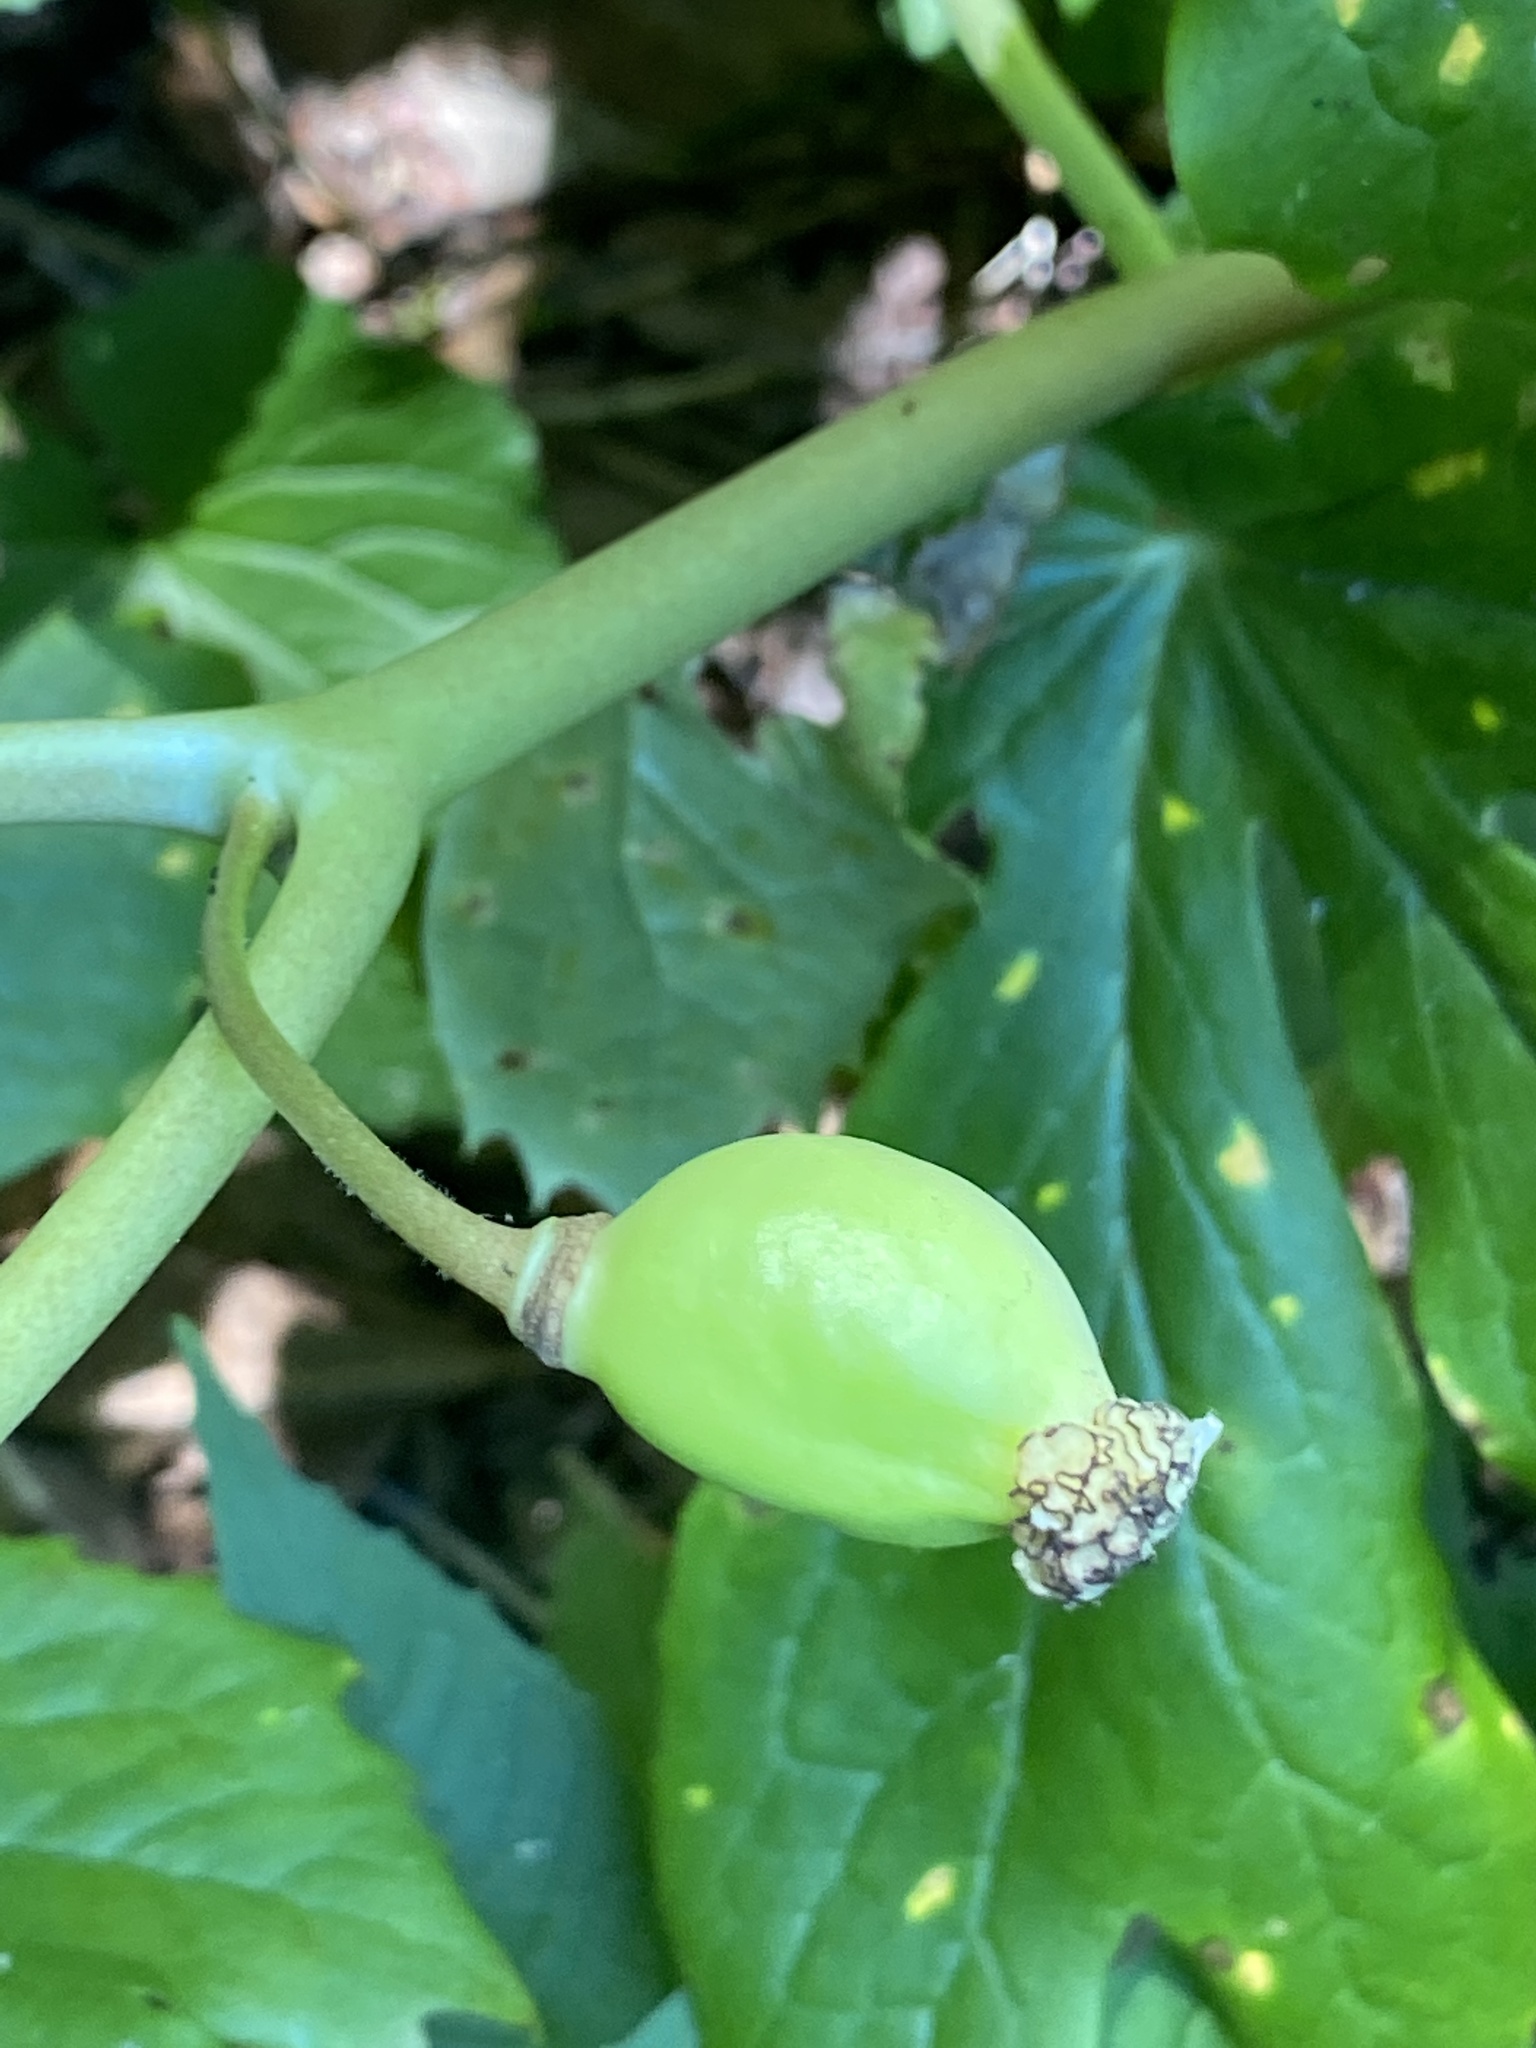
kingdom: Plantae
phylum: Tracheophyta
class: Magnoliopsida
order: Ranunculales
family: Berberidaceae
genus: Podophyllum
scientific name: Podophyllum peltatum
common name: Wild mandrake
